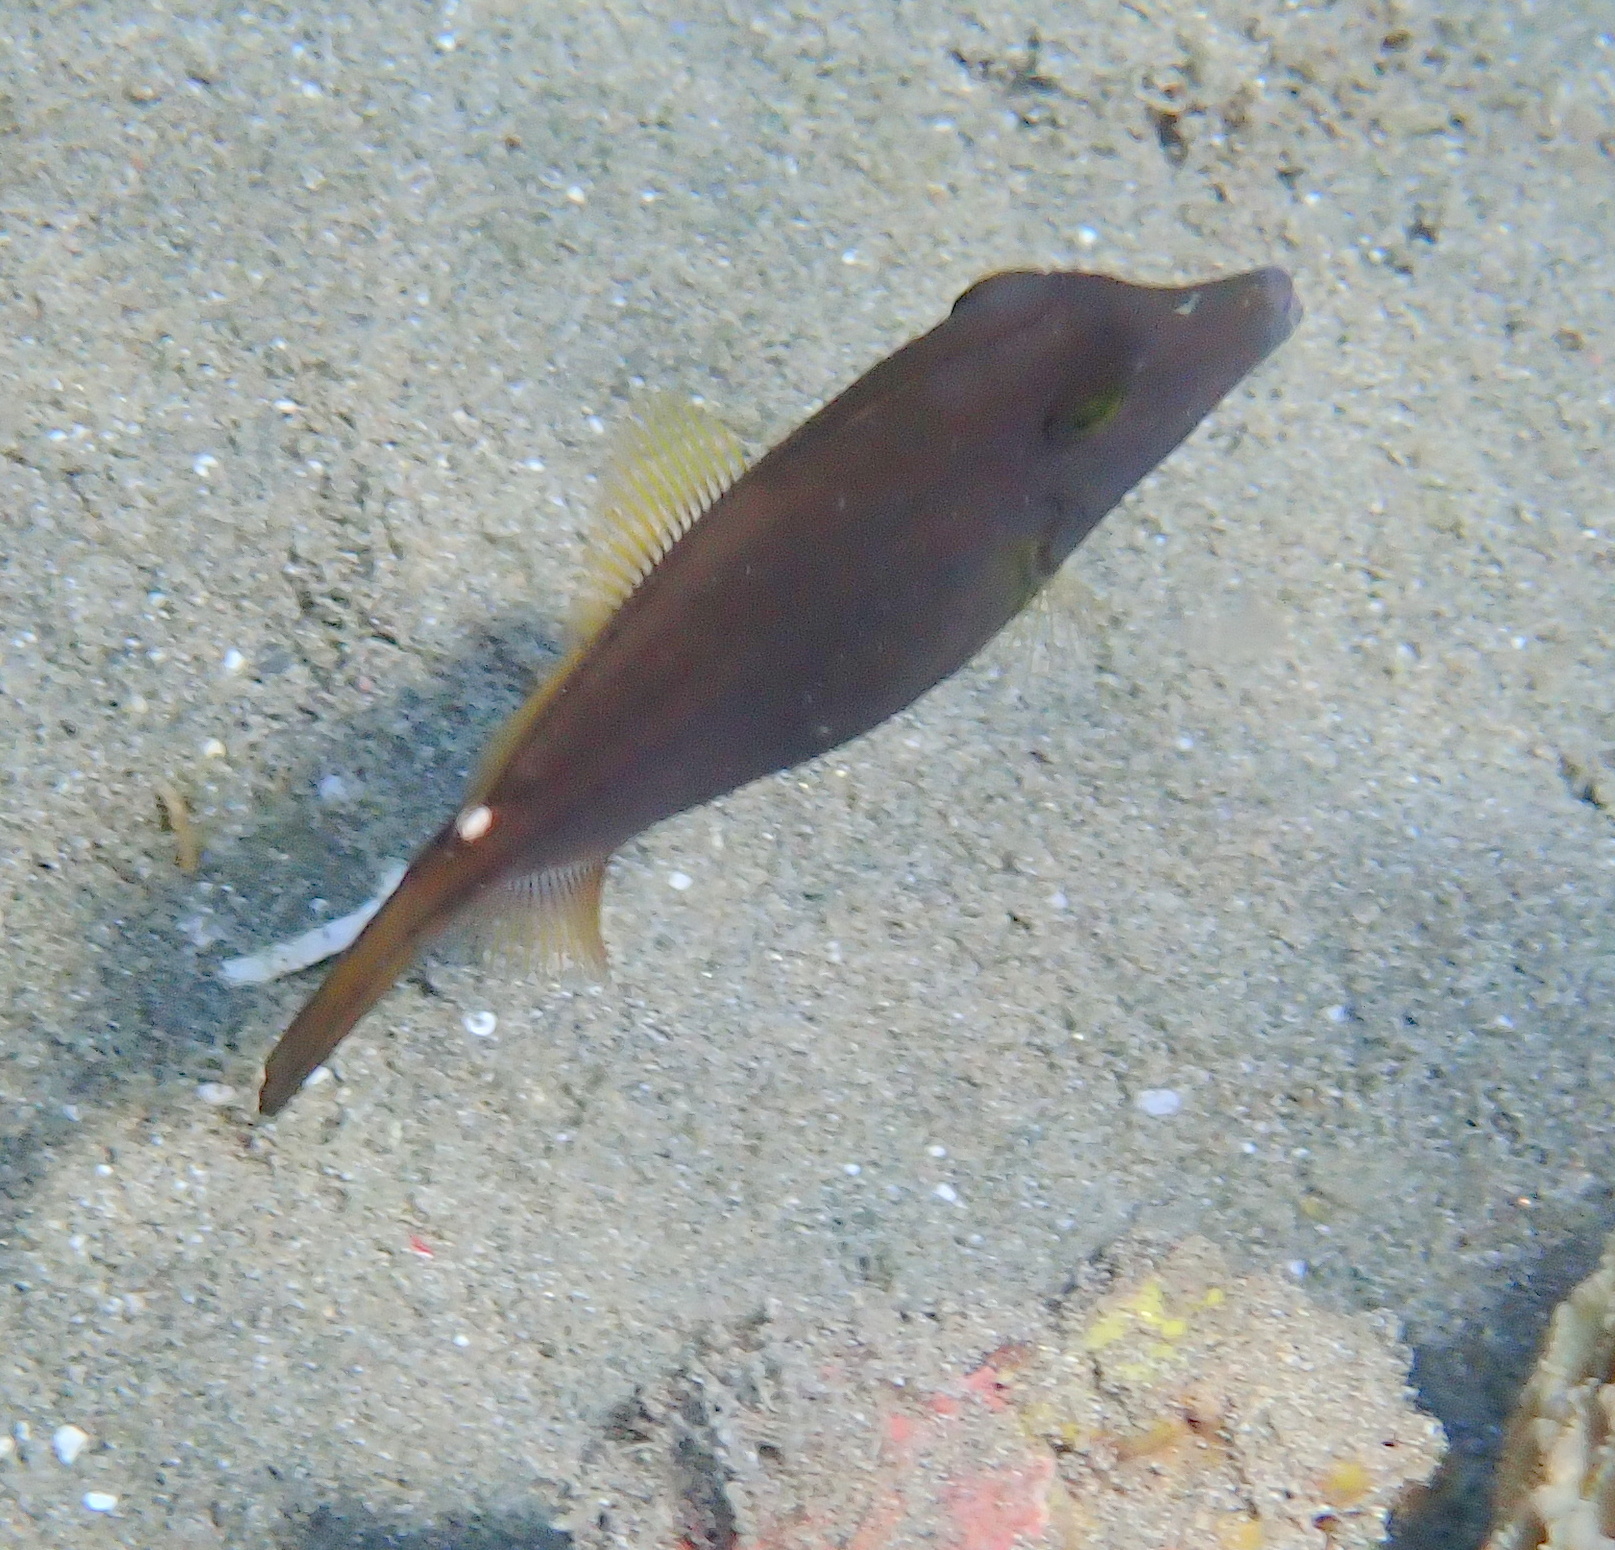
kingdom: Animalia
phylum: Chordata
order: Tetraodontiformes
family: Monacanthidae
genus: Cantherhines
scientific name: Cantherhines pardalis
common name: Honeycomb filefish
